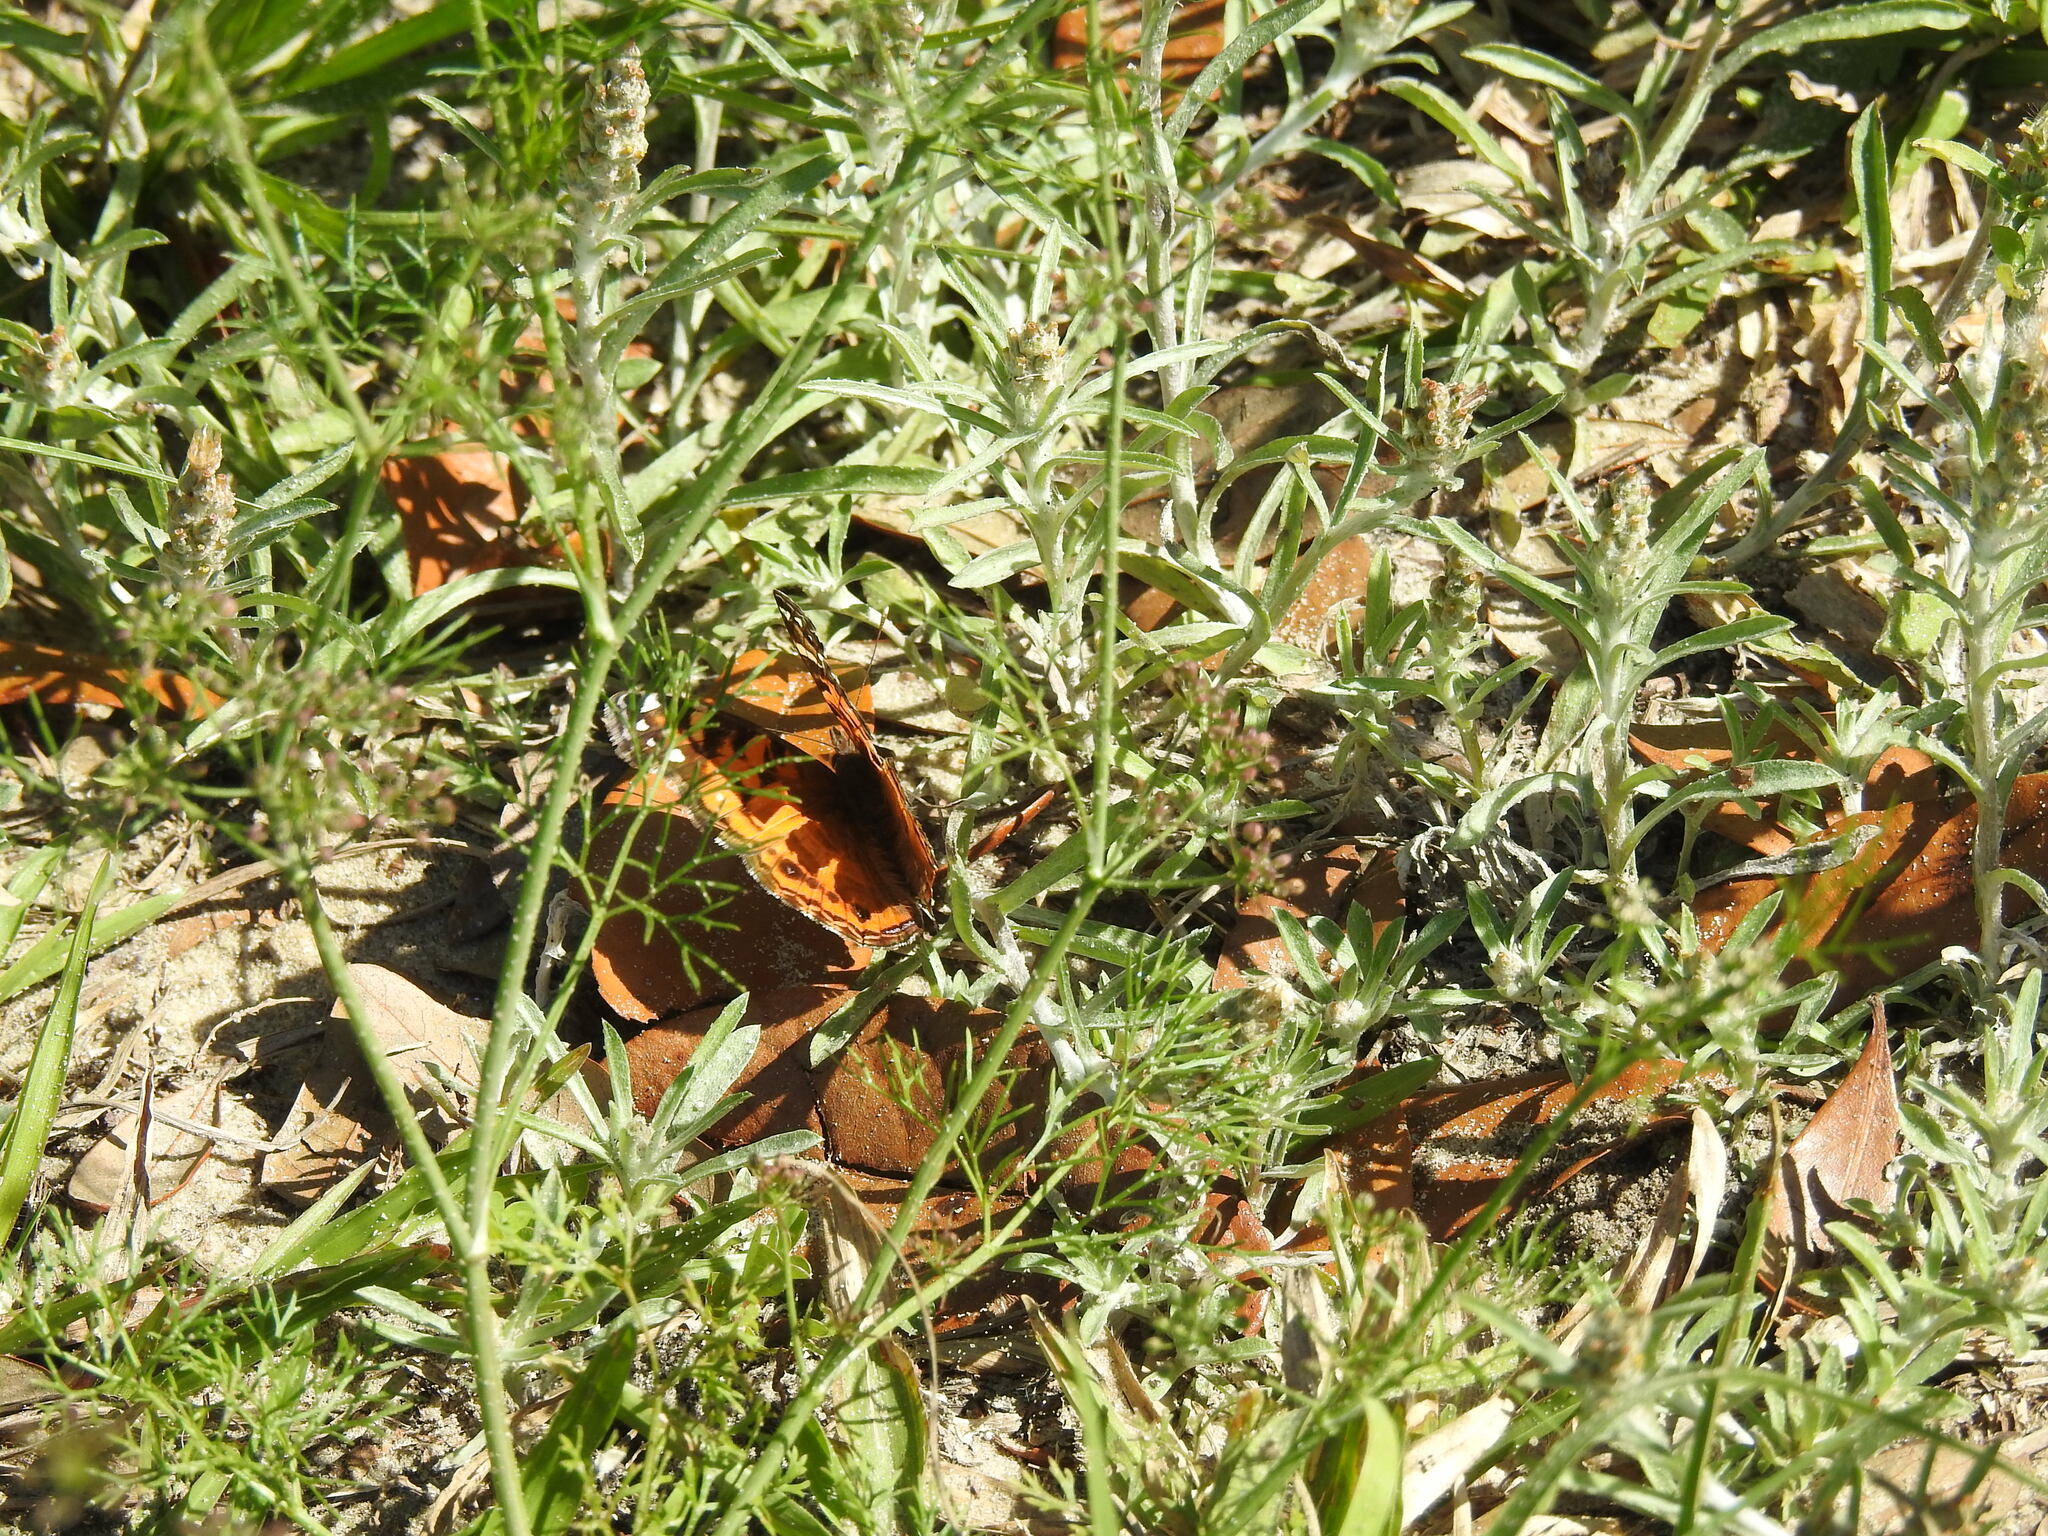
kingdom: Animalia
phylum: Arthropoda
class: Insecta
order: Lepidoptera
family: Nymphalidae
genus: Vanessa
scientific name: Vanessa virginiensis
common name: American lady
